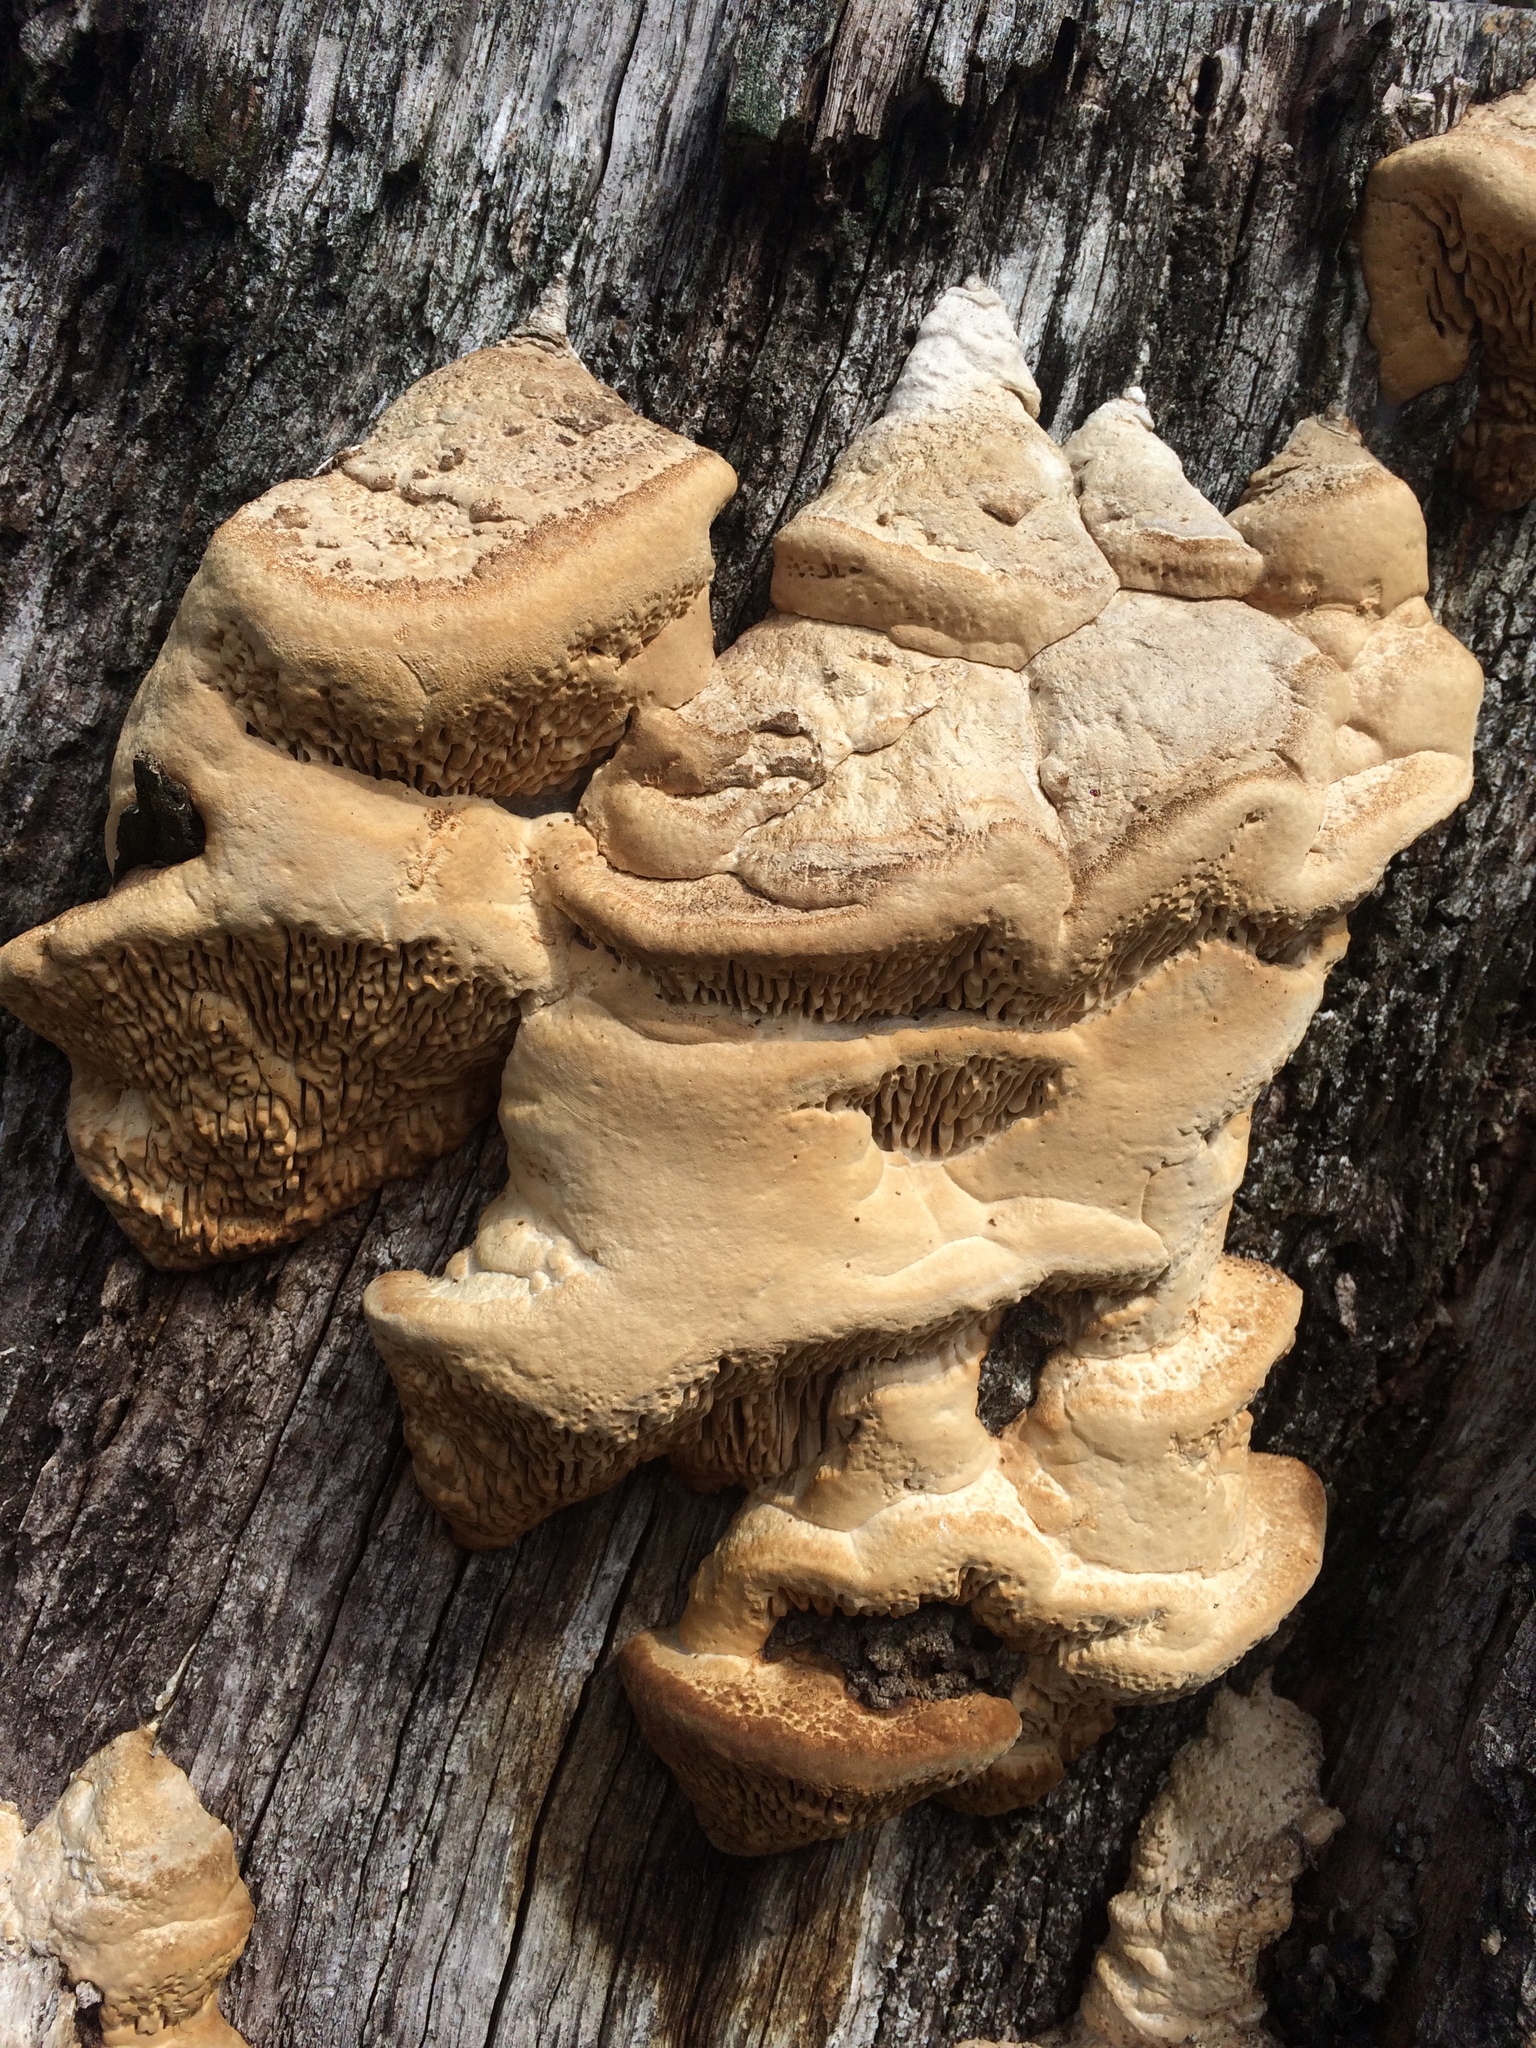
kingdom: Fungi
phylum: Basidiomycota
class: Agaricomycetes
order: Polyporales
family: Fomitopsidaceae
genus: Fomitopsis
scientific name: Fomitopsis
